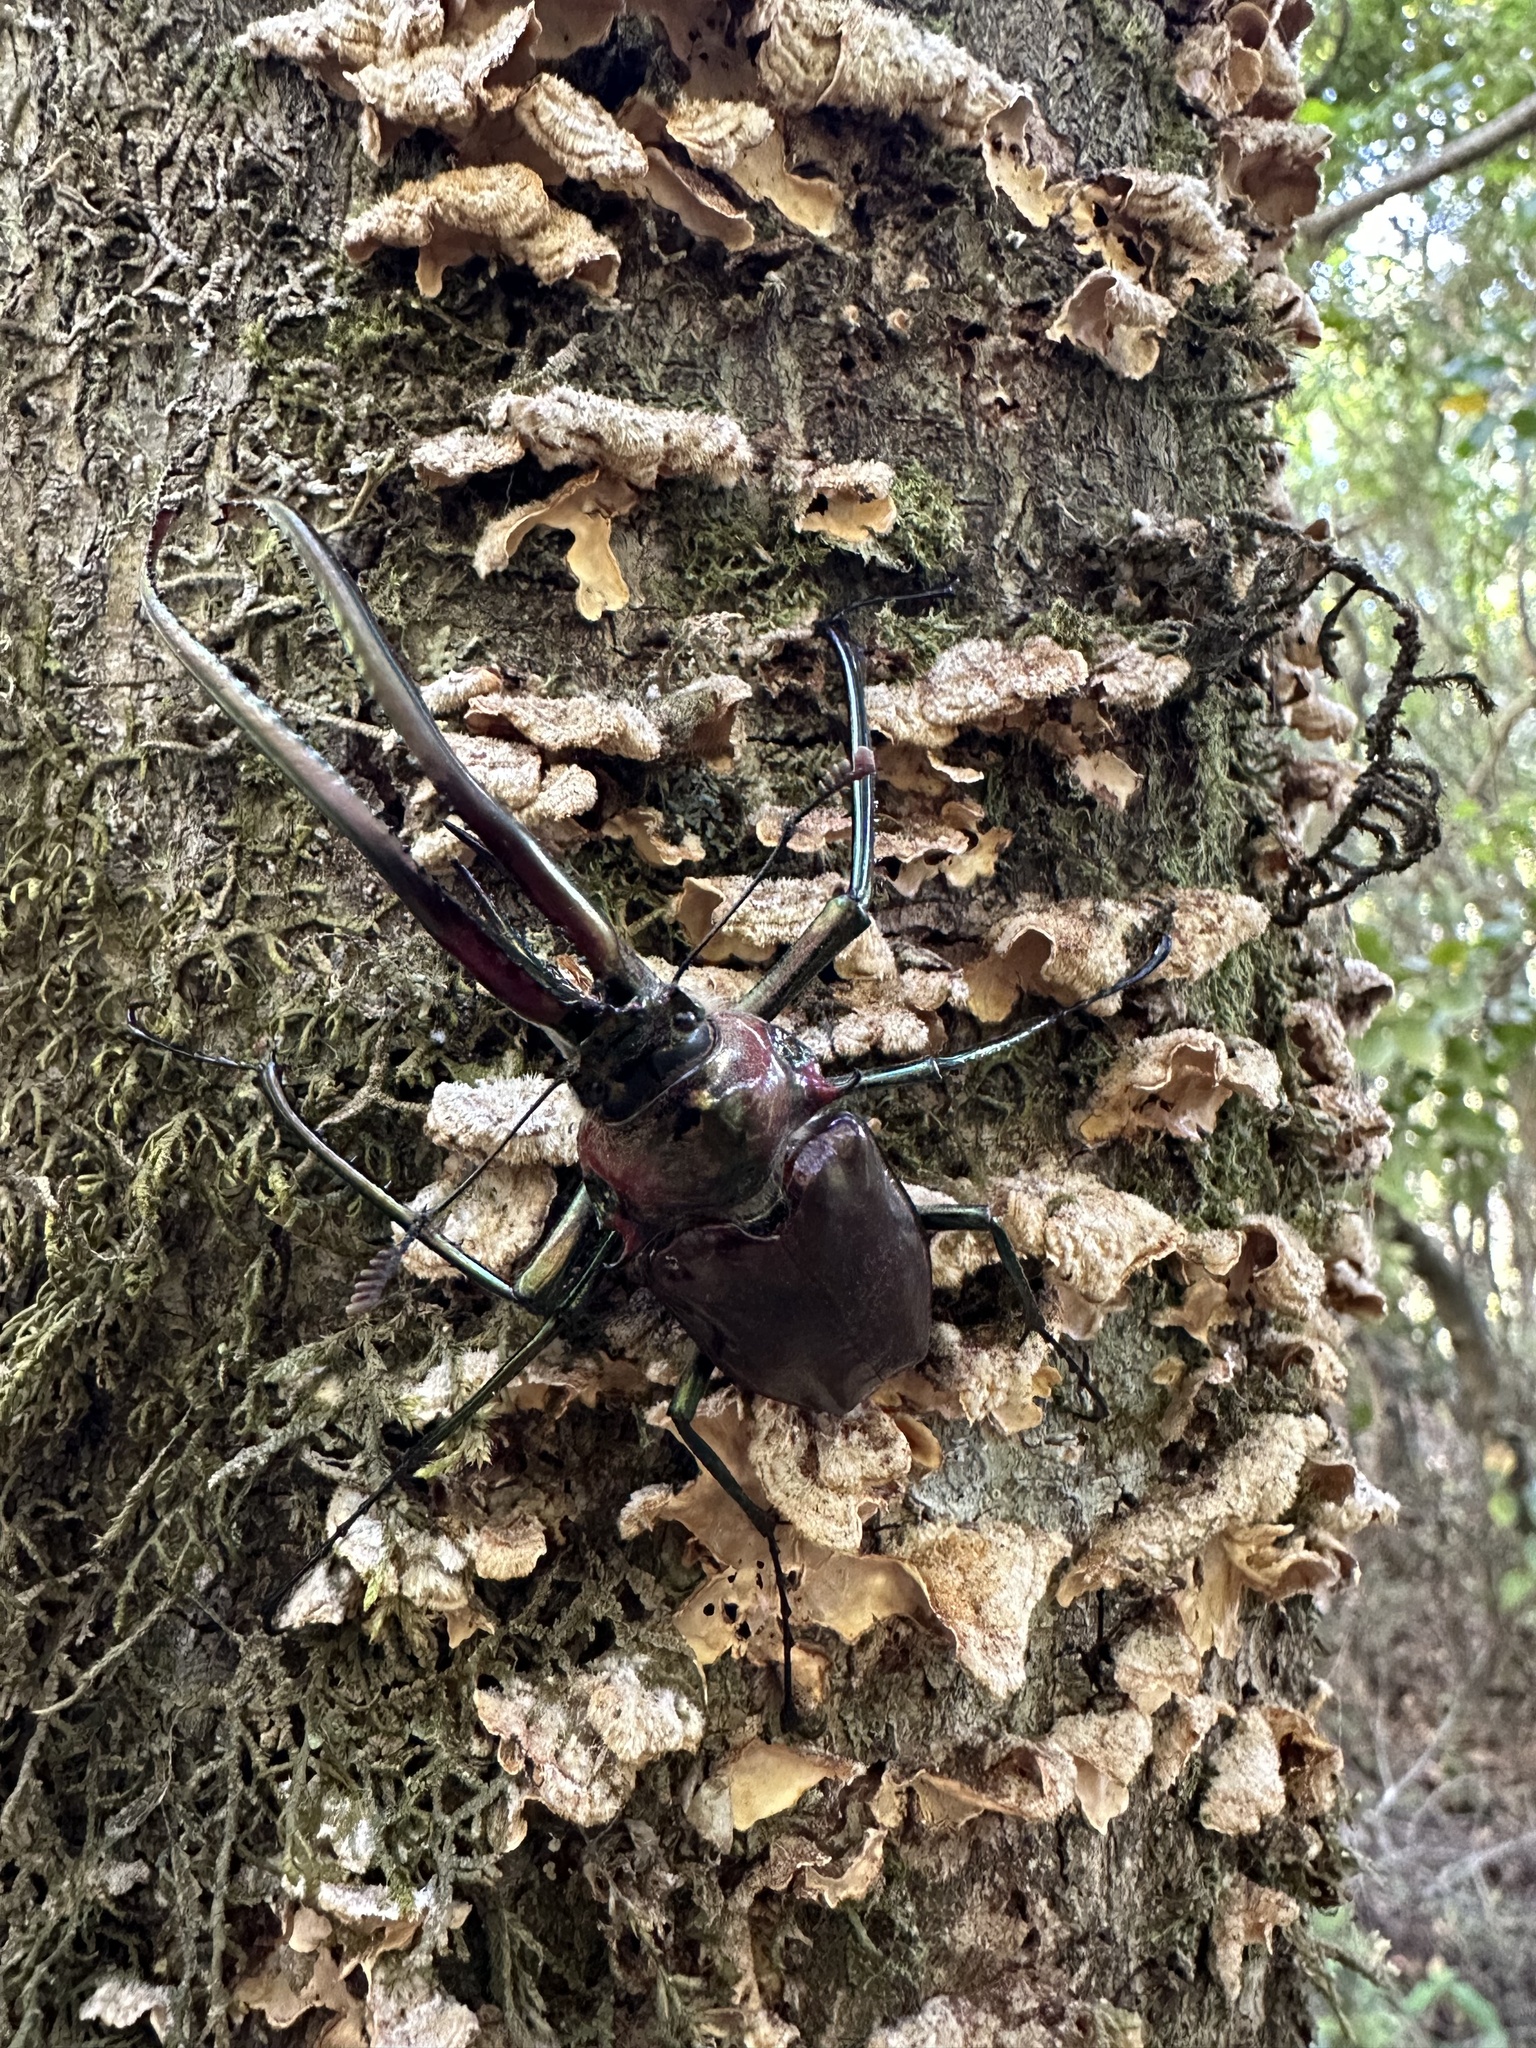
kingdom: Animalia
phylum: Arthropoda
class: Insecta
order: Coleoptera
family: Lucanidae
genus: Chiasognathus
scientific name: Chiasognathus grantii
